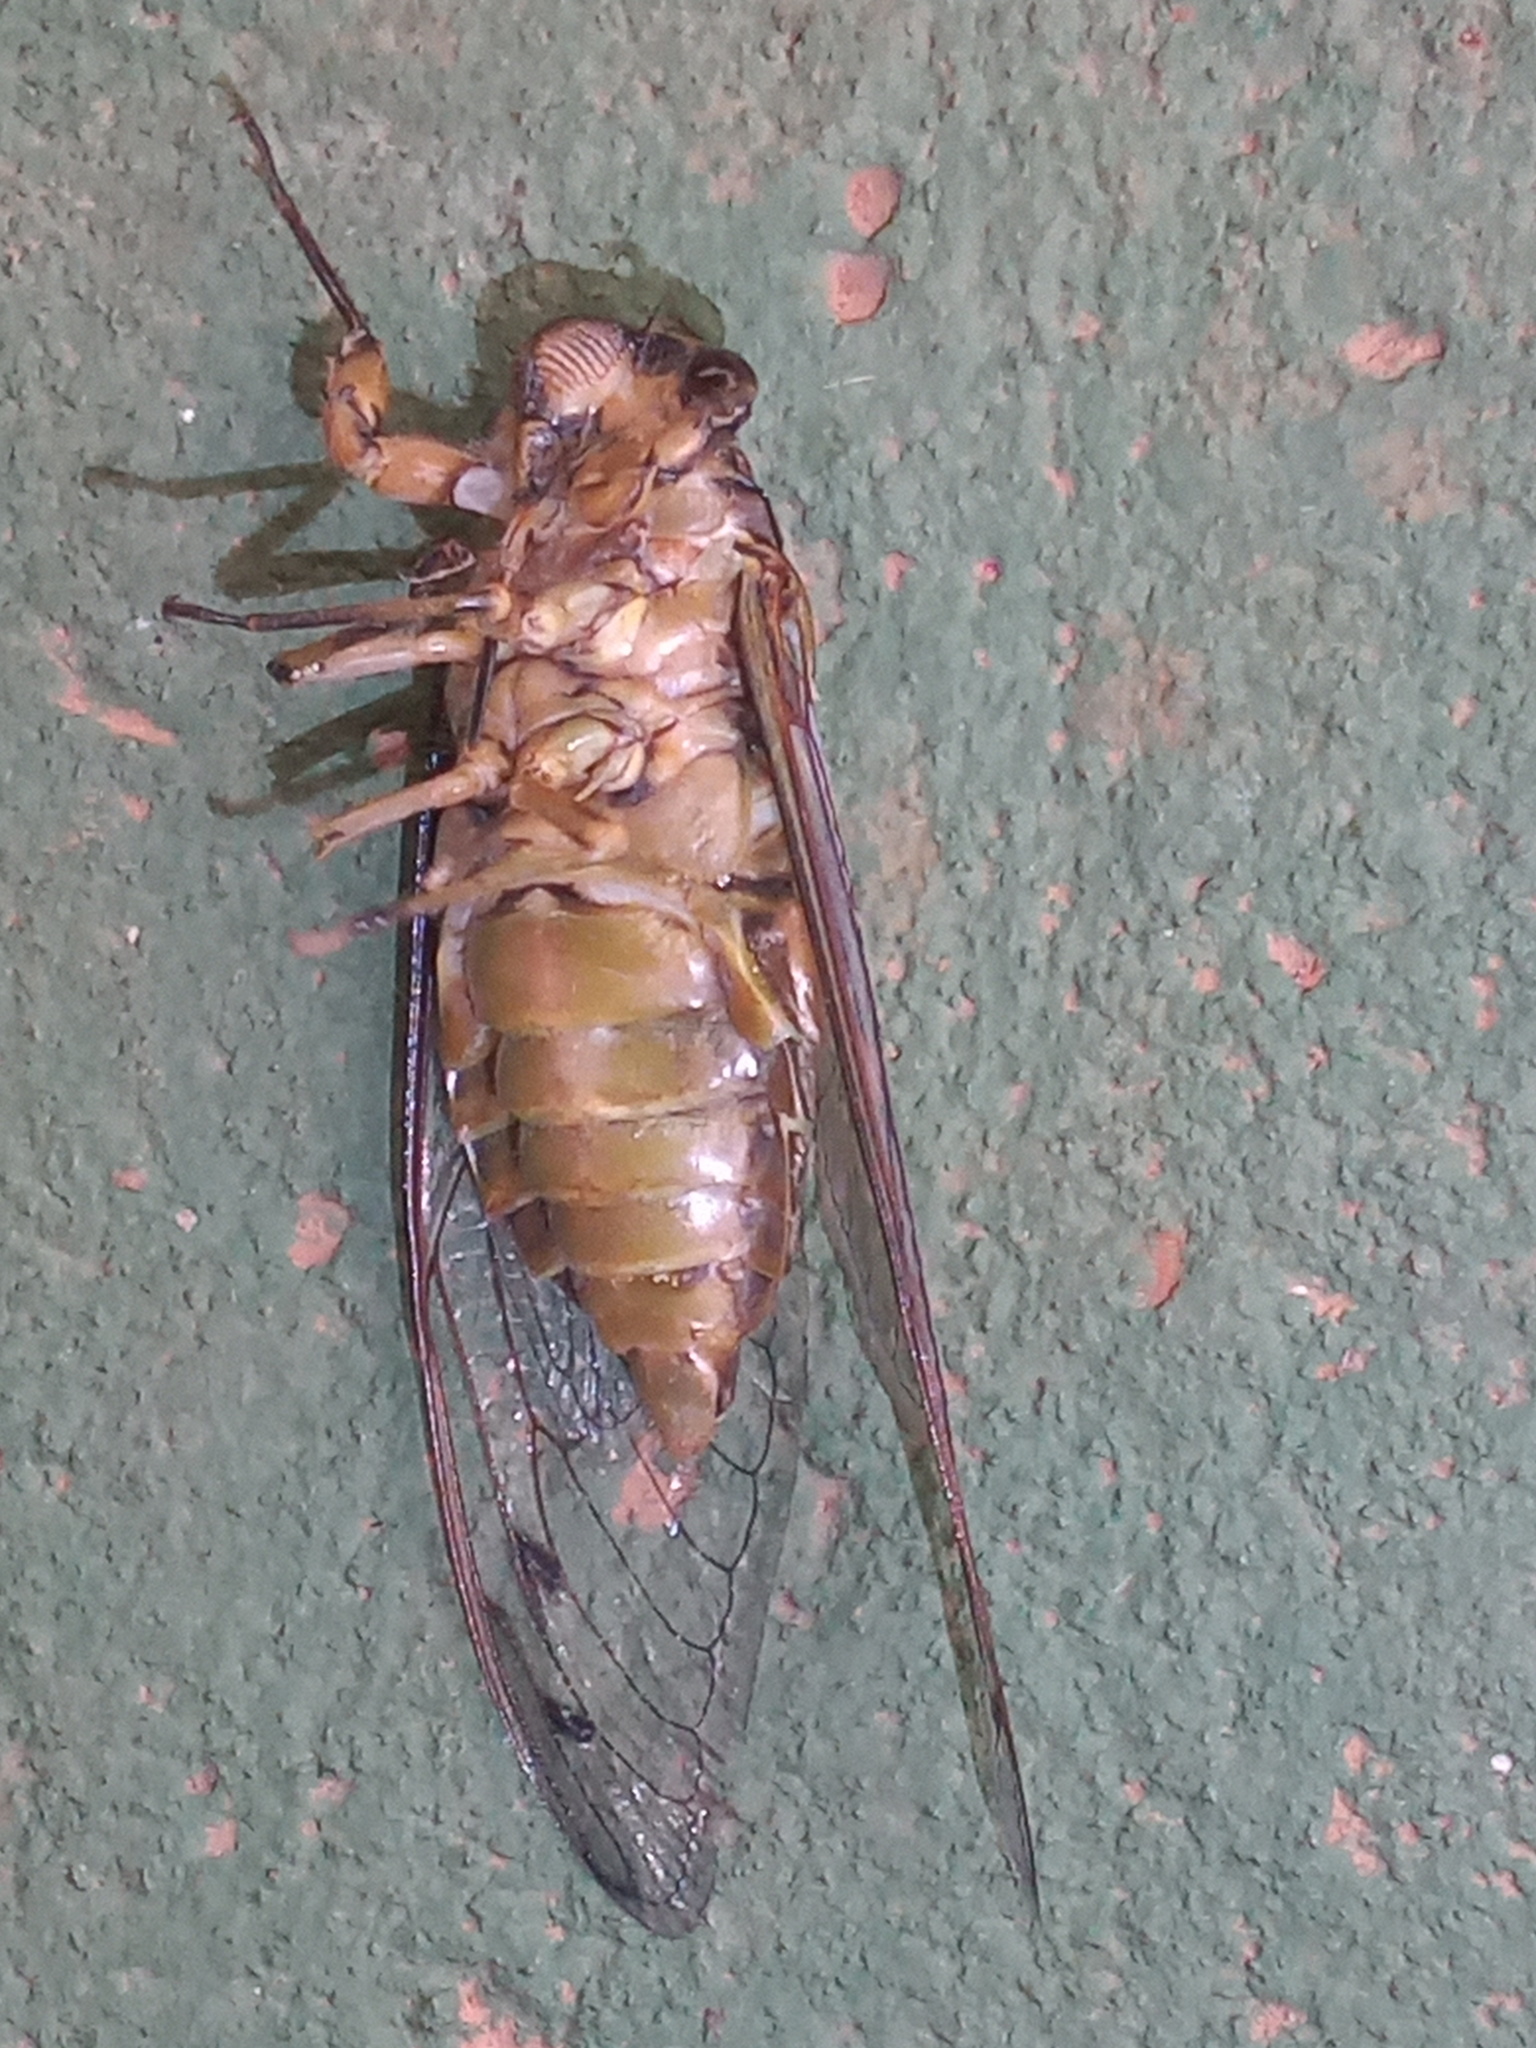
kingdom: Animalia
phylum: Arthropoda
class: Insecta
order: Hemiptera
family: Cicadidae
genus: Quesada
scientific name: Quesada gigas
